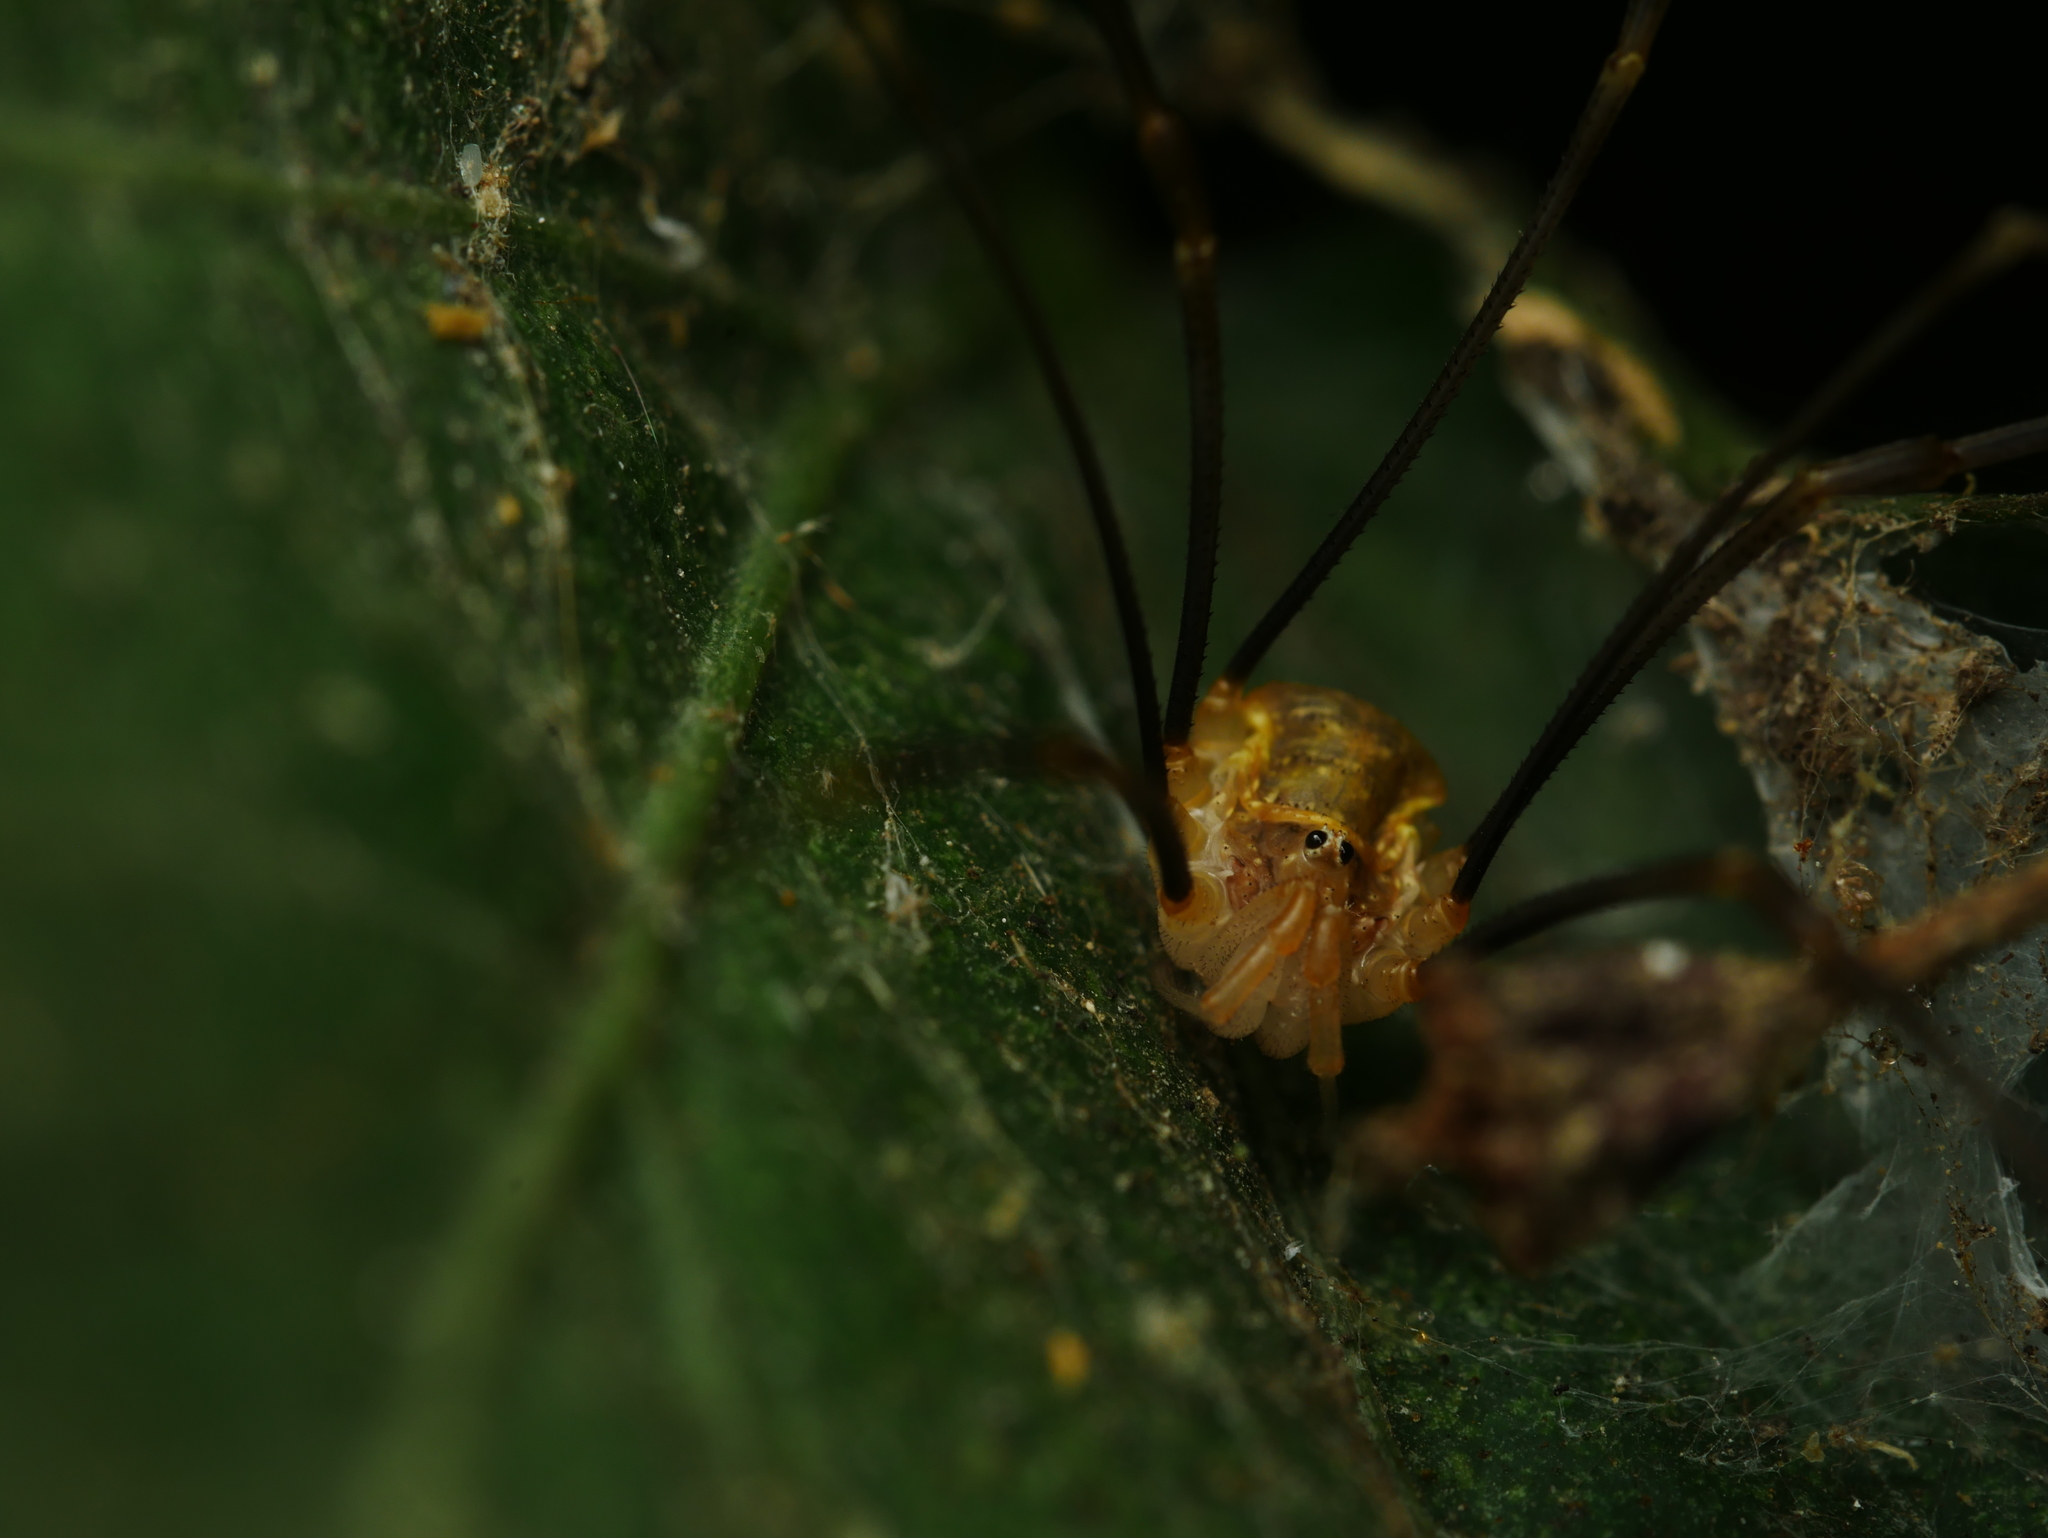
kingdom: Animalia
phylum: Arthropoda
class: Arachnida
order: Opiliones
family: Phalangiidae
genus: Opilio
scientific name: Opilio canestrinii
